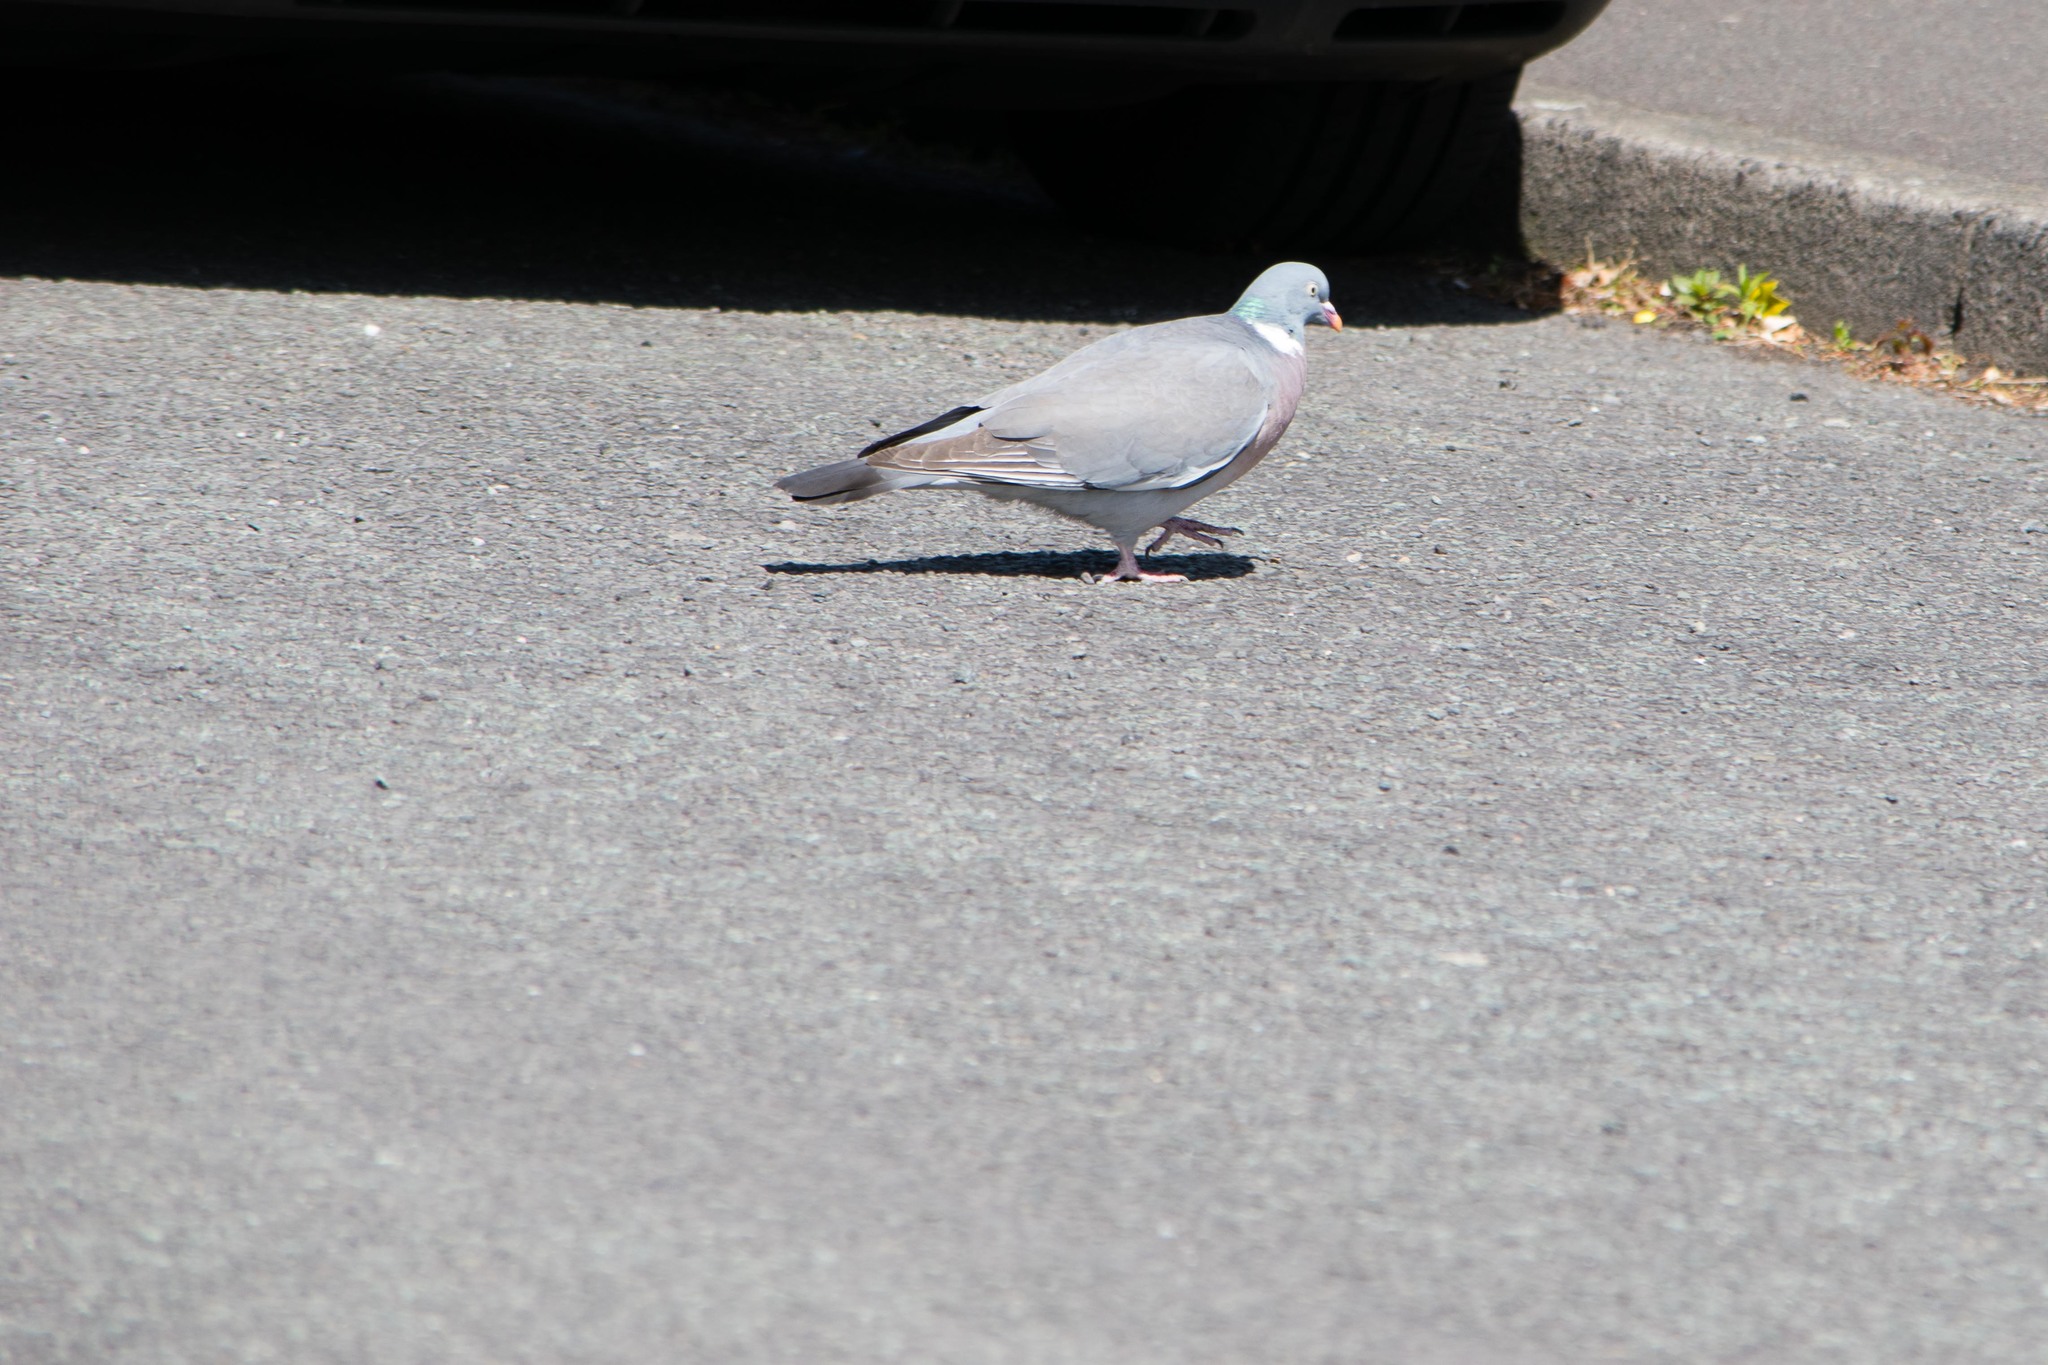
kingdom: Animalia
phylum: Chordata
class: Aves
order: Columbiformes
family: Columbidae
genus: Columba
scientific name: Columba palumbus
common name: Common wood pigeon
